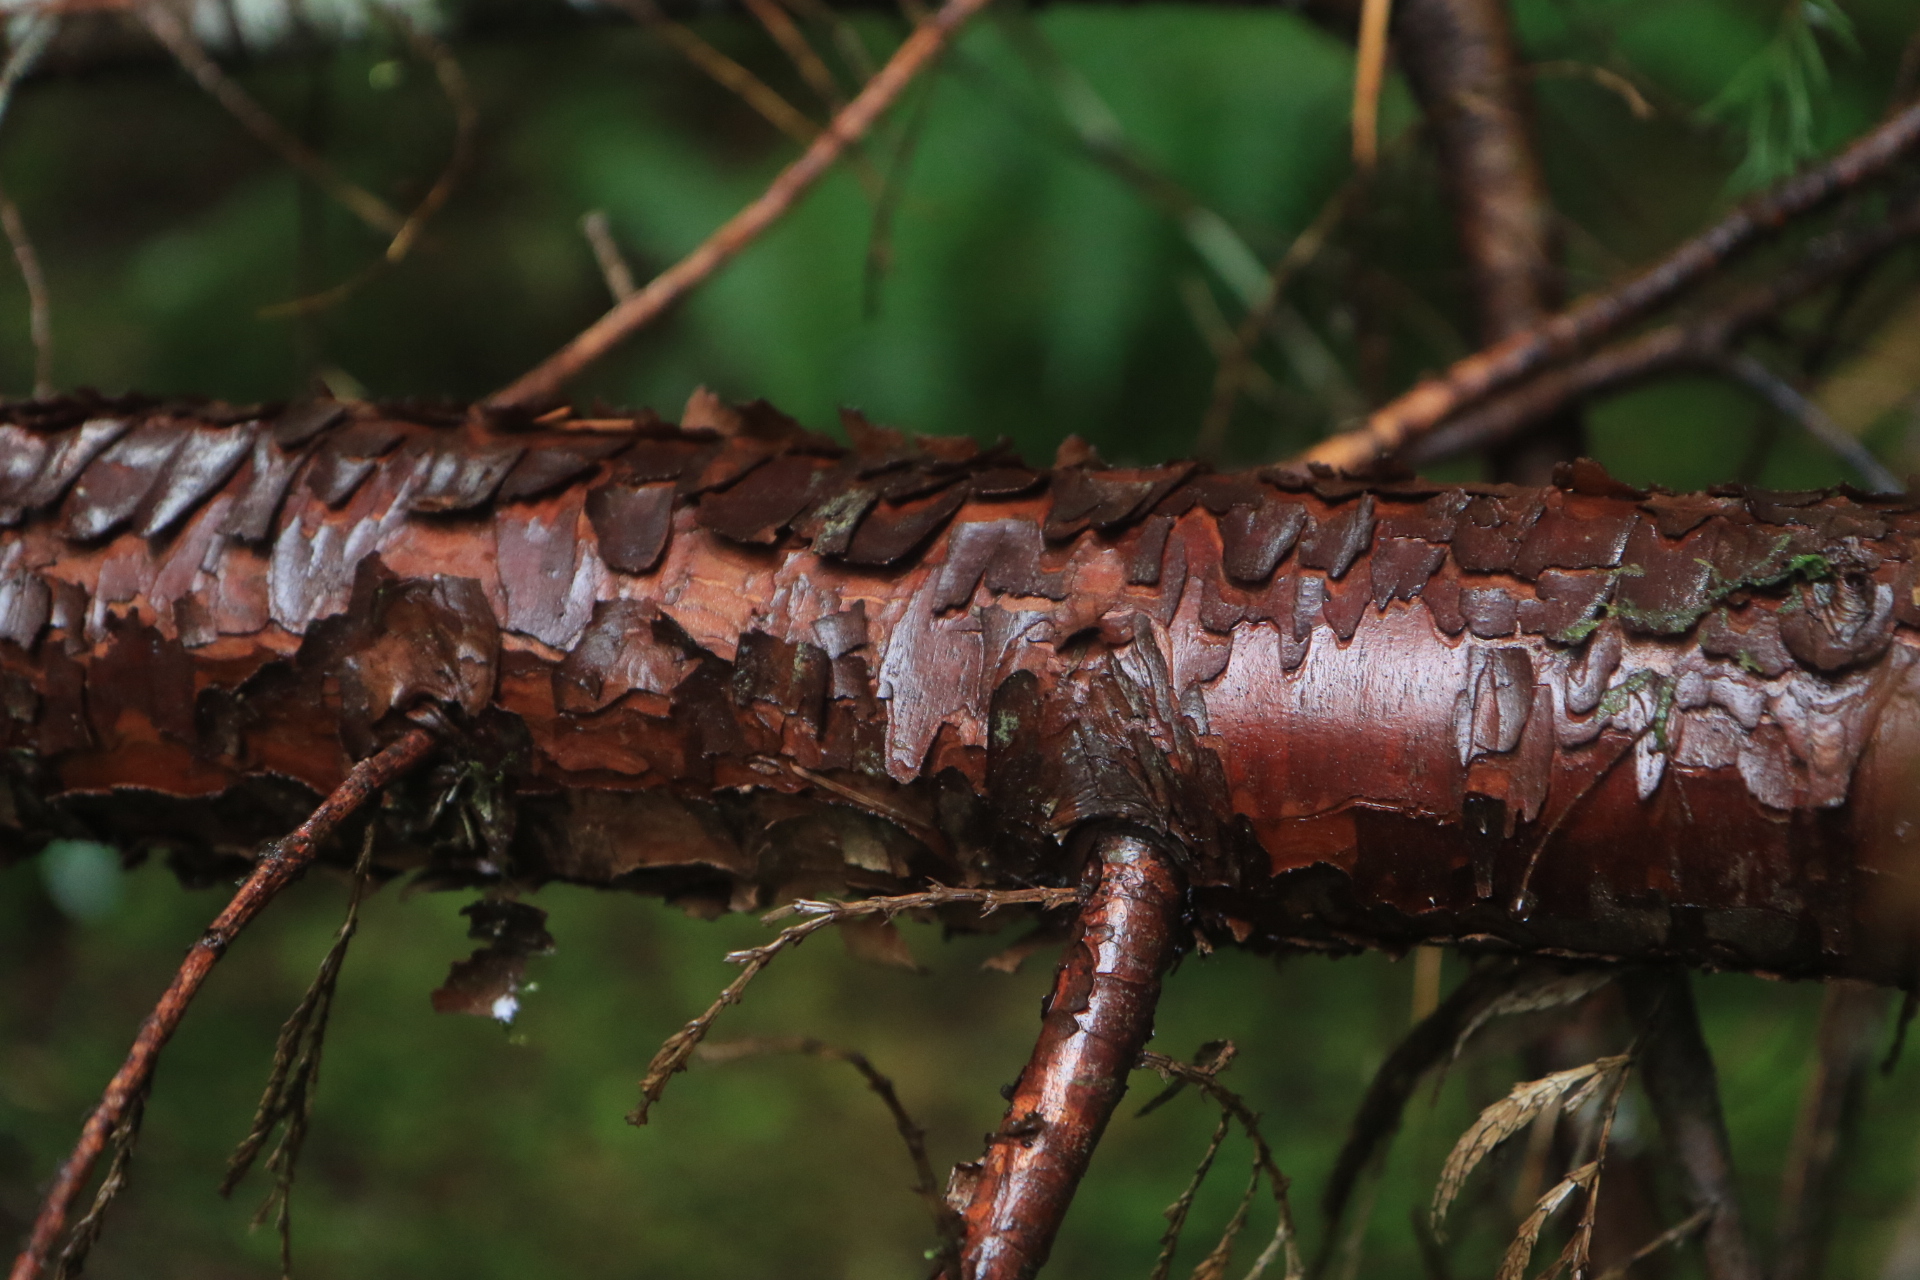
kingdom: Plantae
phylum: Tracheophyta
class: Pinopsida
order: Pinales
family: Cupressaceae
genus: Calocedrus
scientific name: Calocedrus decurrens
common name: Californian incense-cedar
